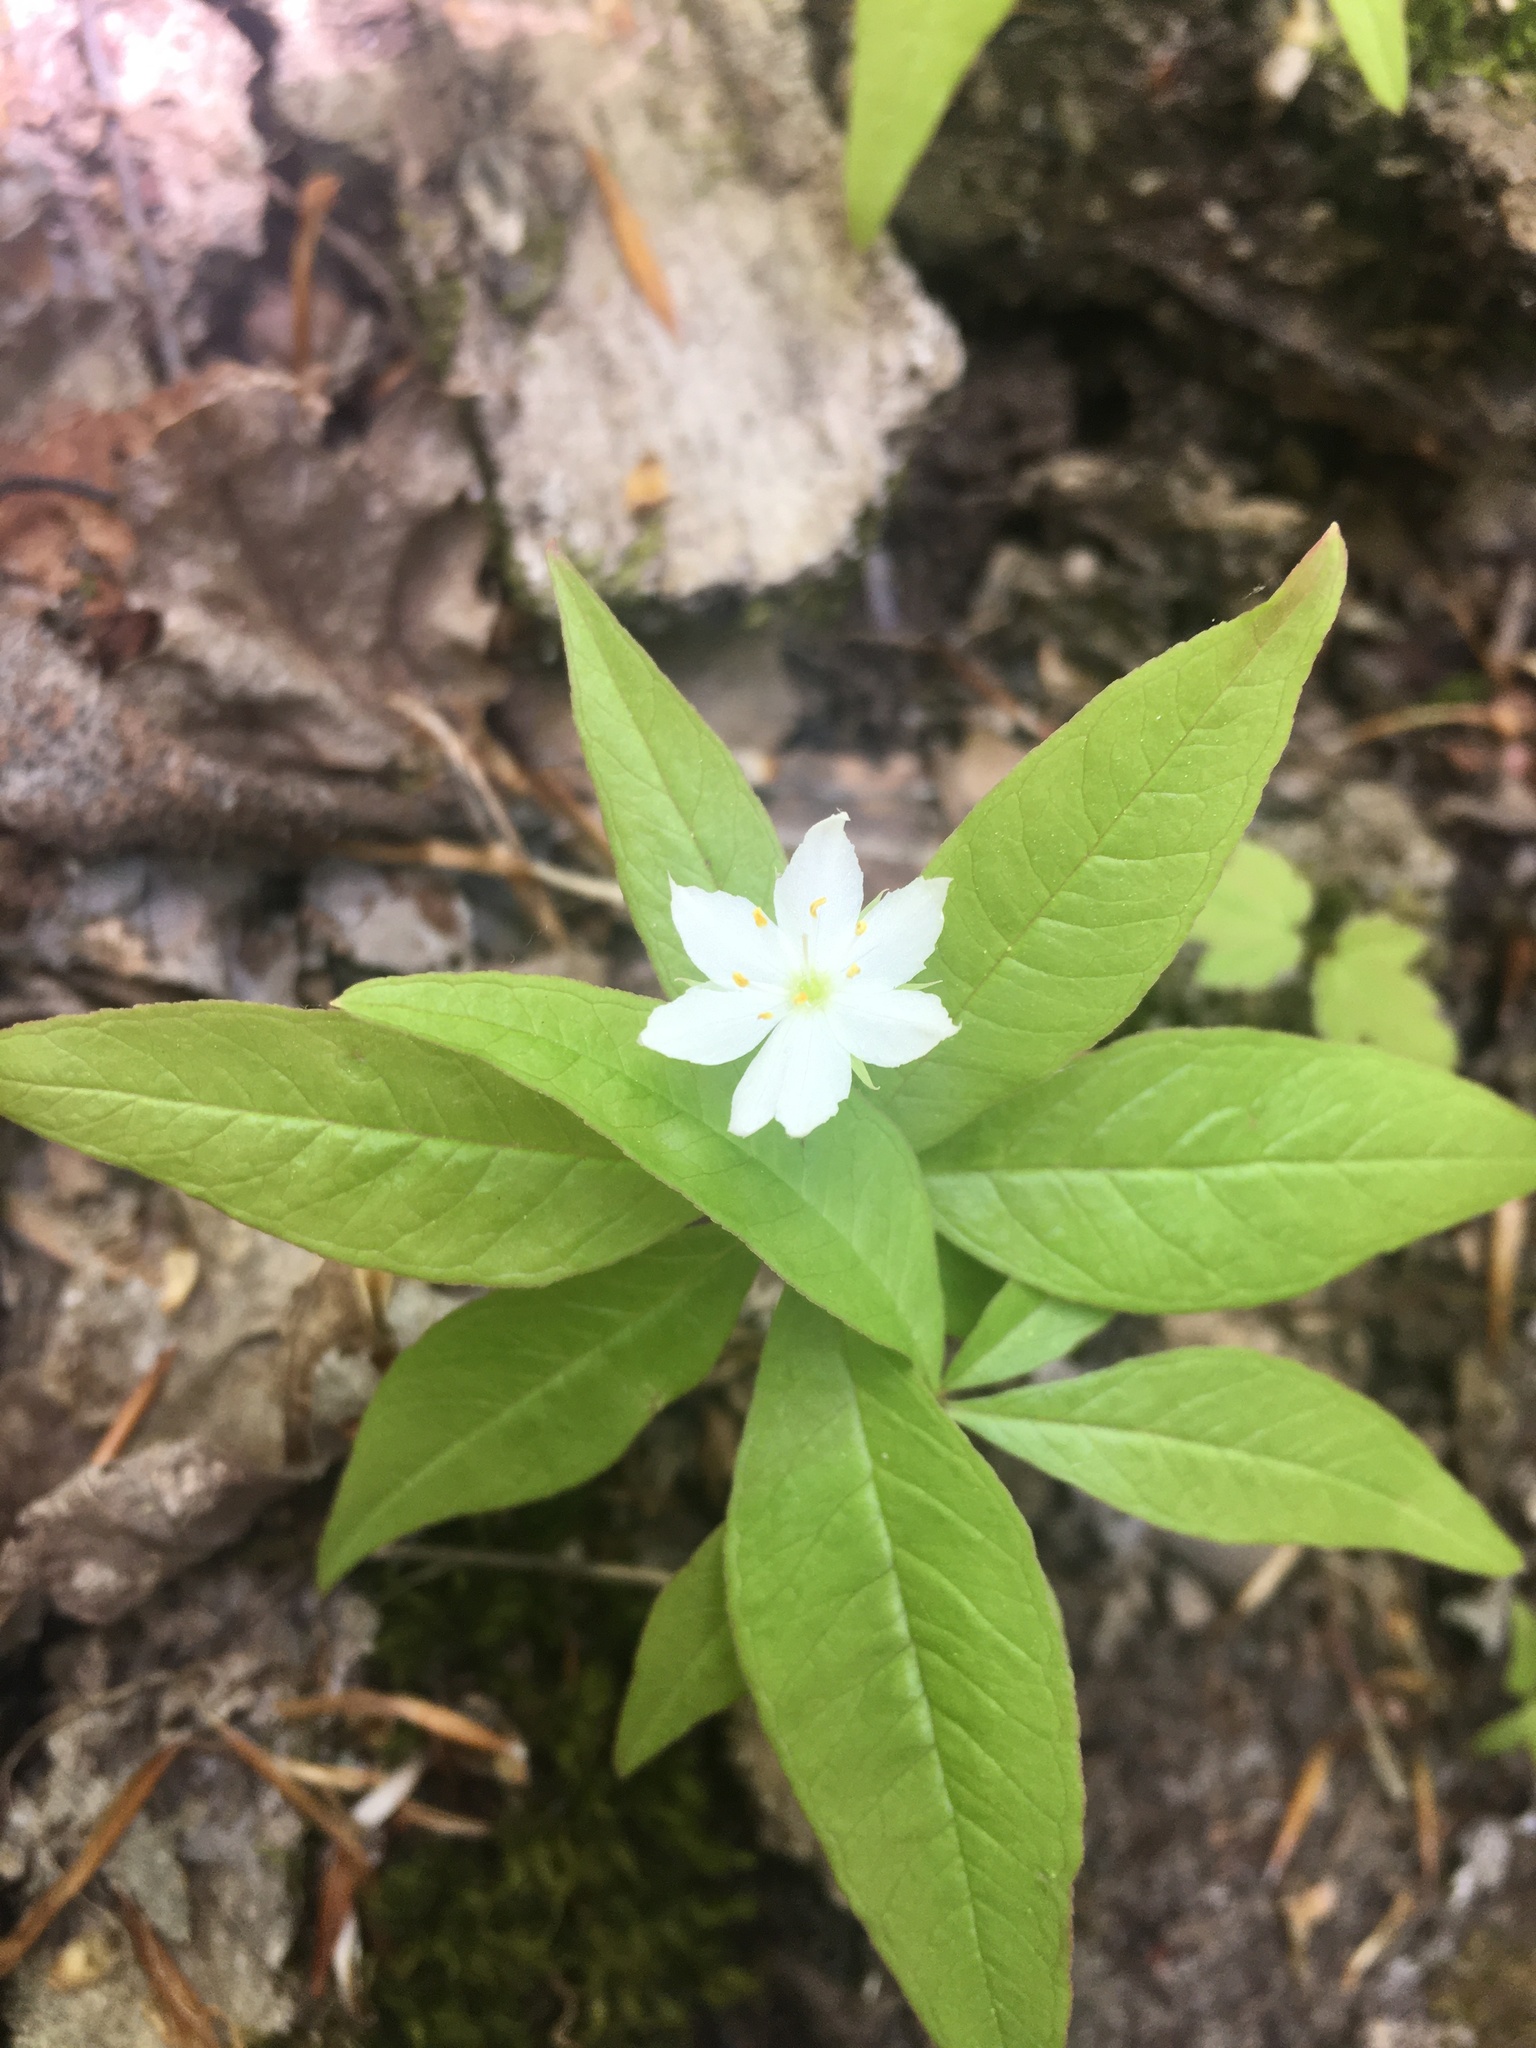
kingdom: Plantae
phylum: Tracheophyta
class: Magnoliopsida
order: Ericales
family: Primulaceae
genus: Lysimachia
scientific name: Lysimachia borealis
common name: American starflower
